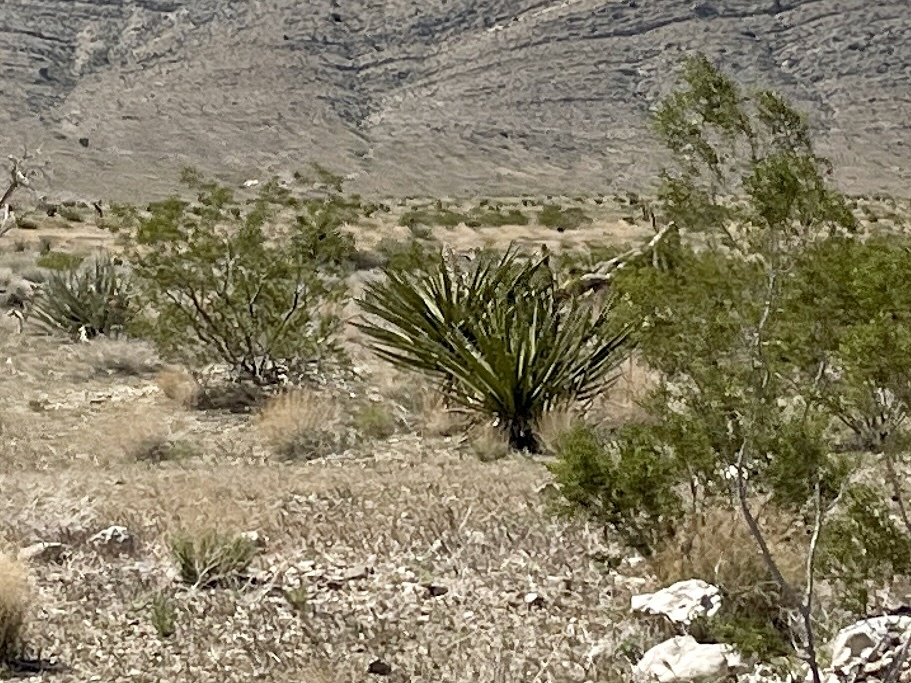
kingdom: Plantae
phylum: Tracheophyta
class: Liliopsida
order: Asparagales
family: Asparagaceae
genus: Yucca
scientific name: Yucca schidigera
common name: Mojave yucca
